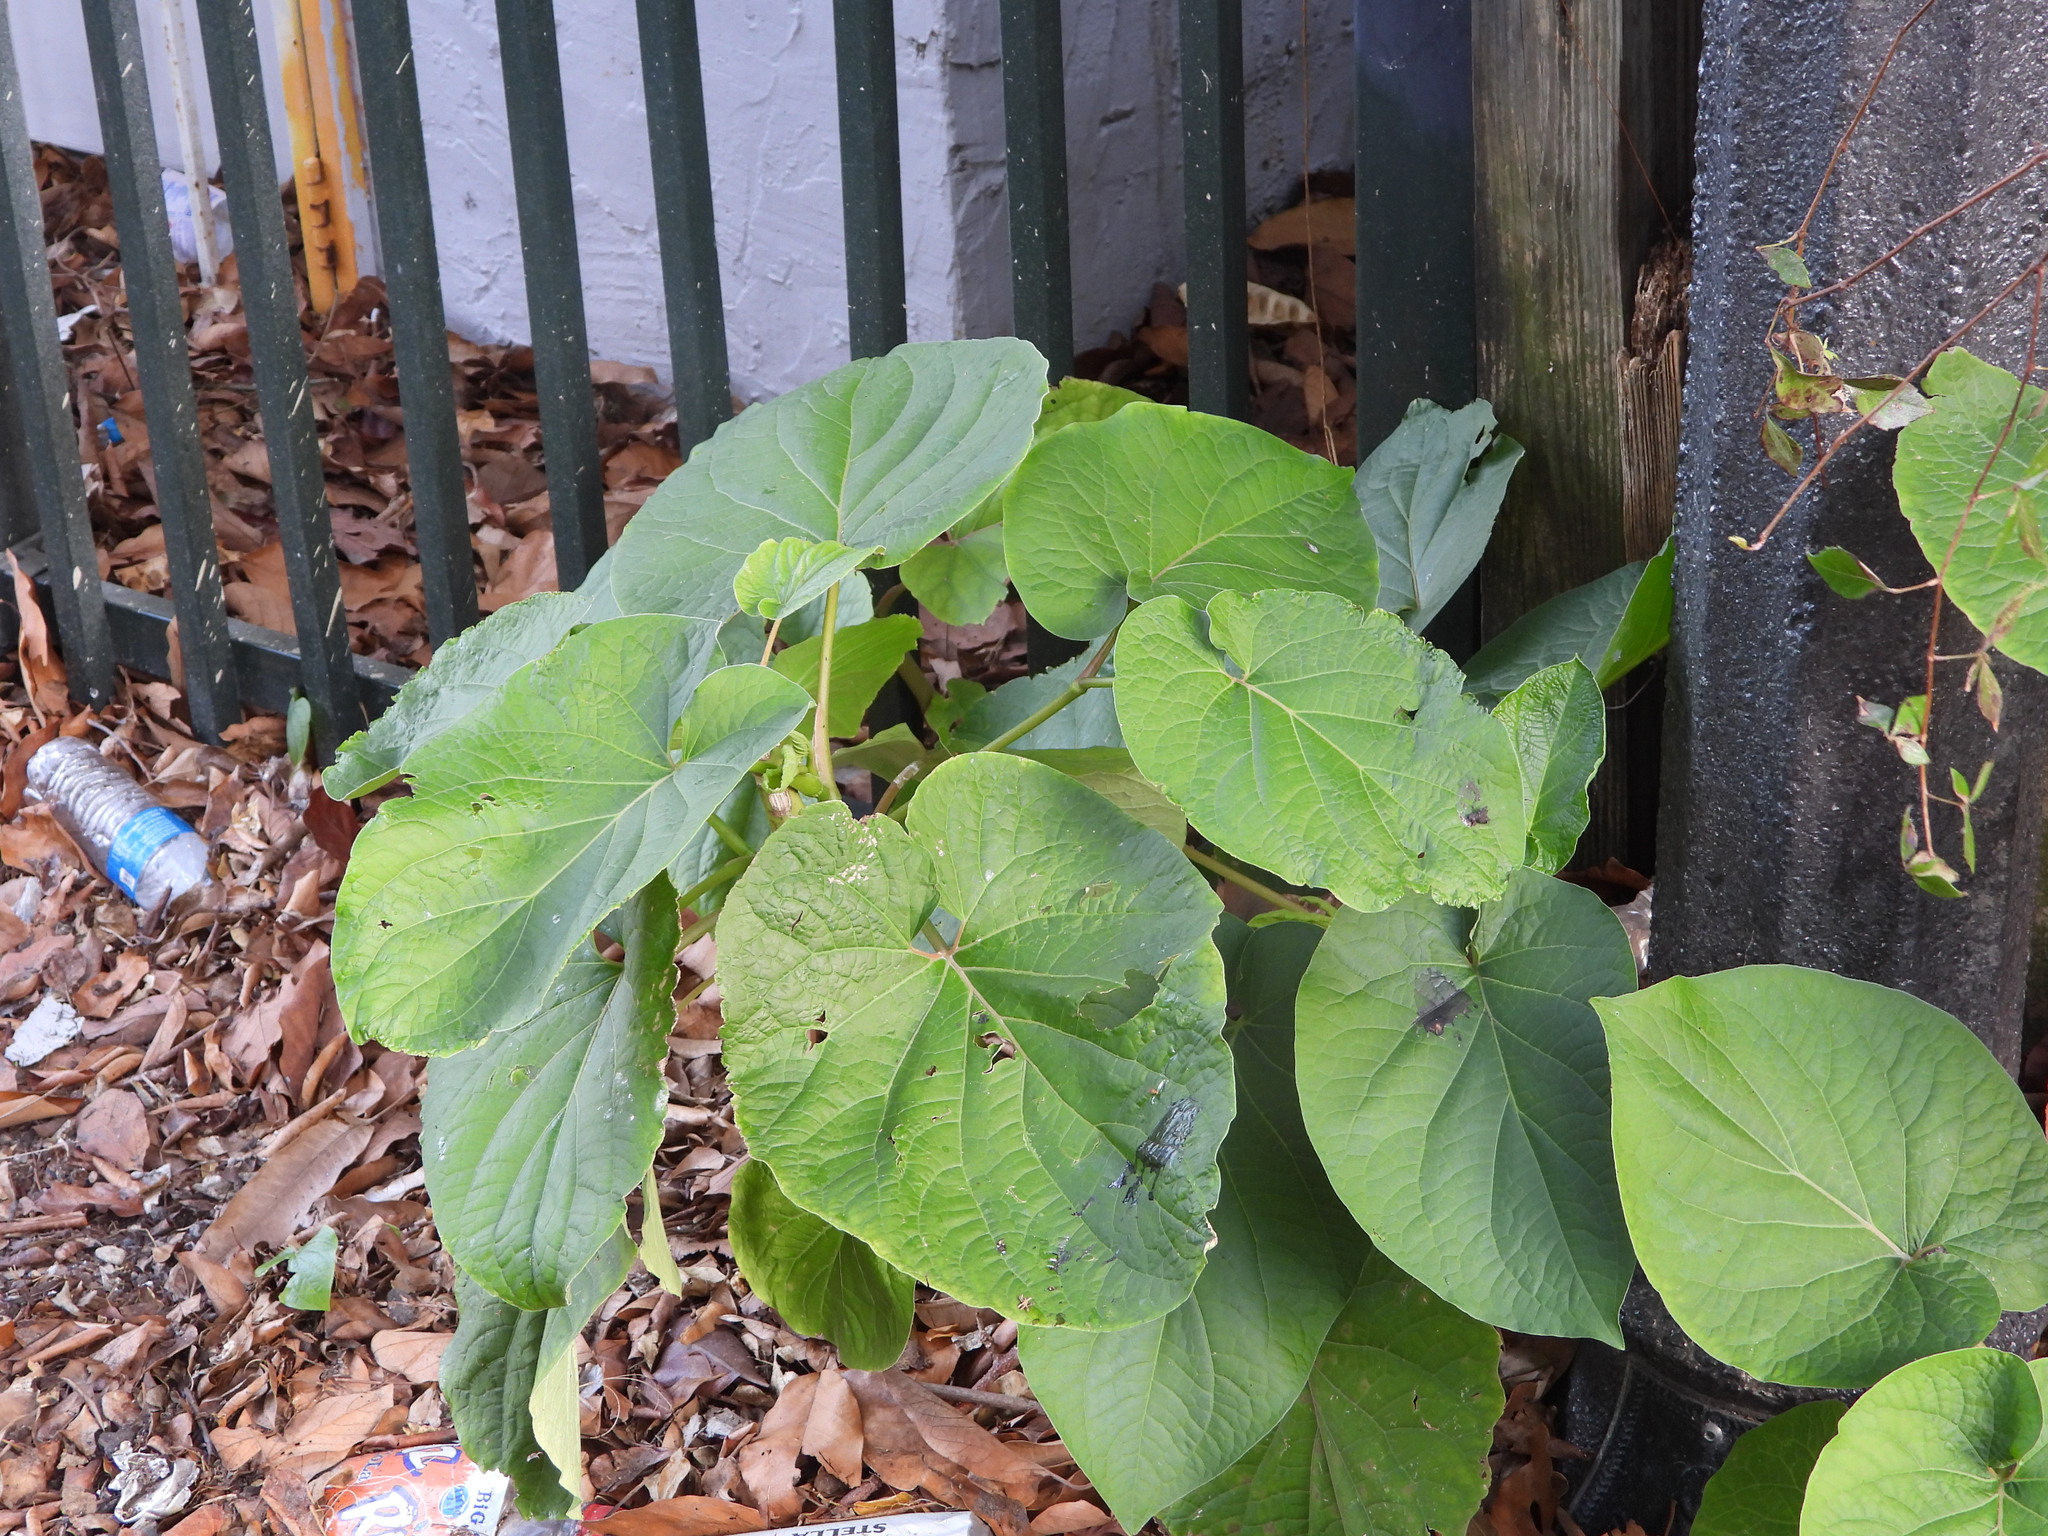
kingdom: Plantae
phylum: Tracheophyta
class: Magnoliopsida
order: Piperales
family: Piperaceae
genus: Piper
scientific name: Piper auritum
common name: Vera cruz pepper
